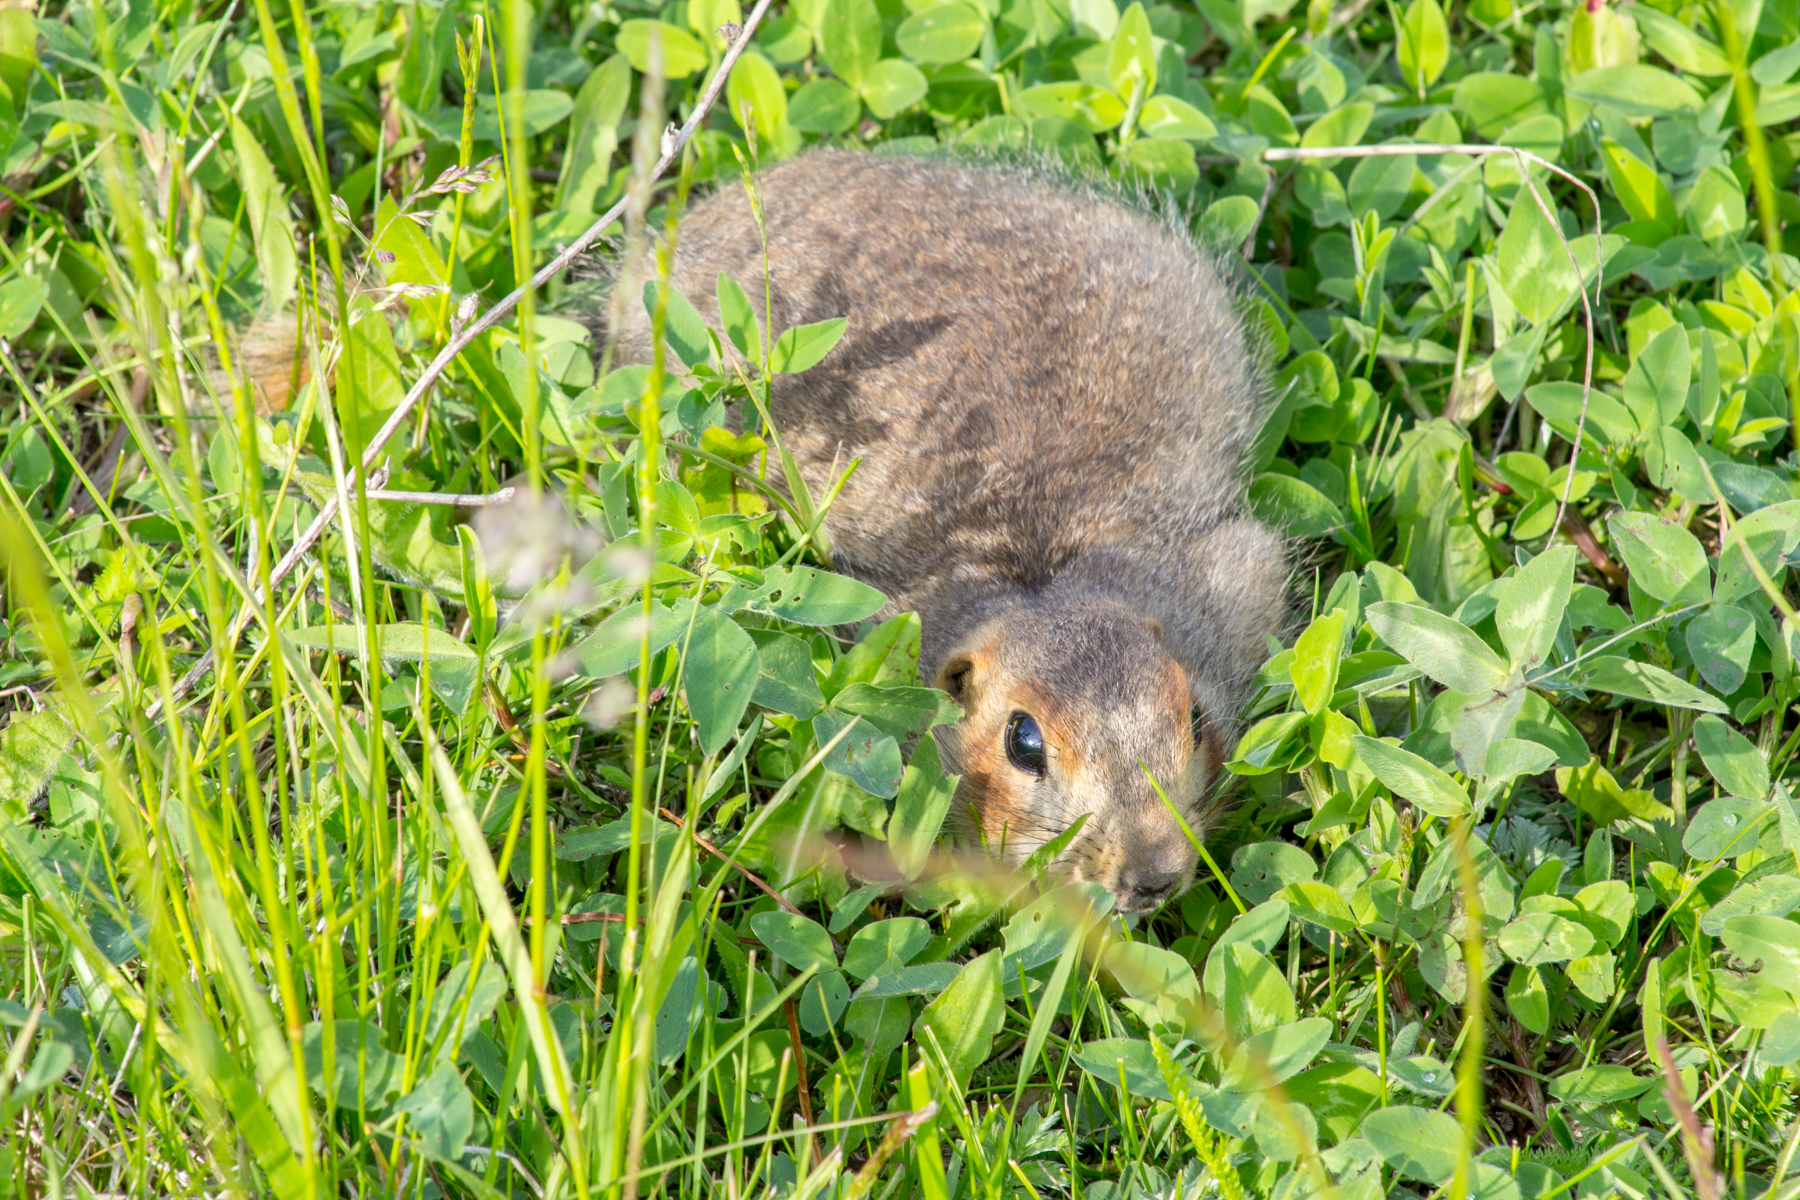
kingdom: Animalia
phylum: Chordata
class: Mammalia
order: Rodentia
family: Sciuridae
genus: Spermophilus
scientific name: Spermophilus major
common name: Russet ground squirrel
